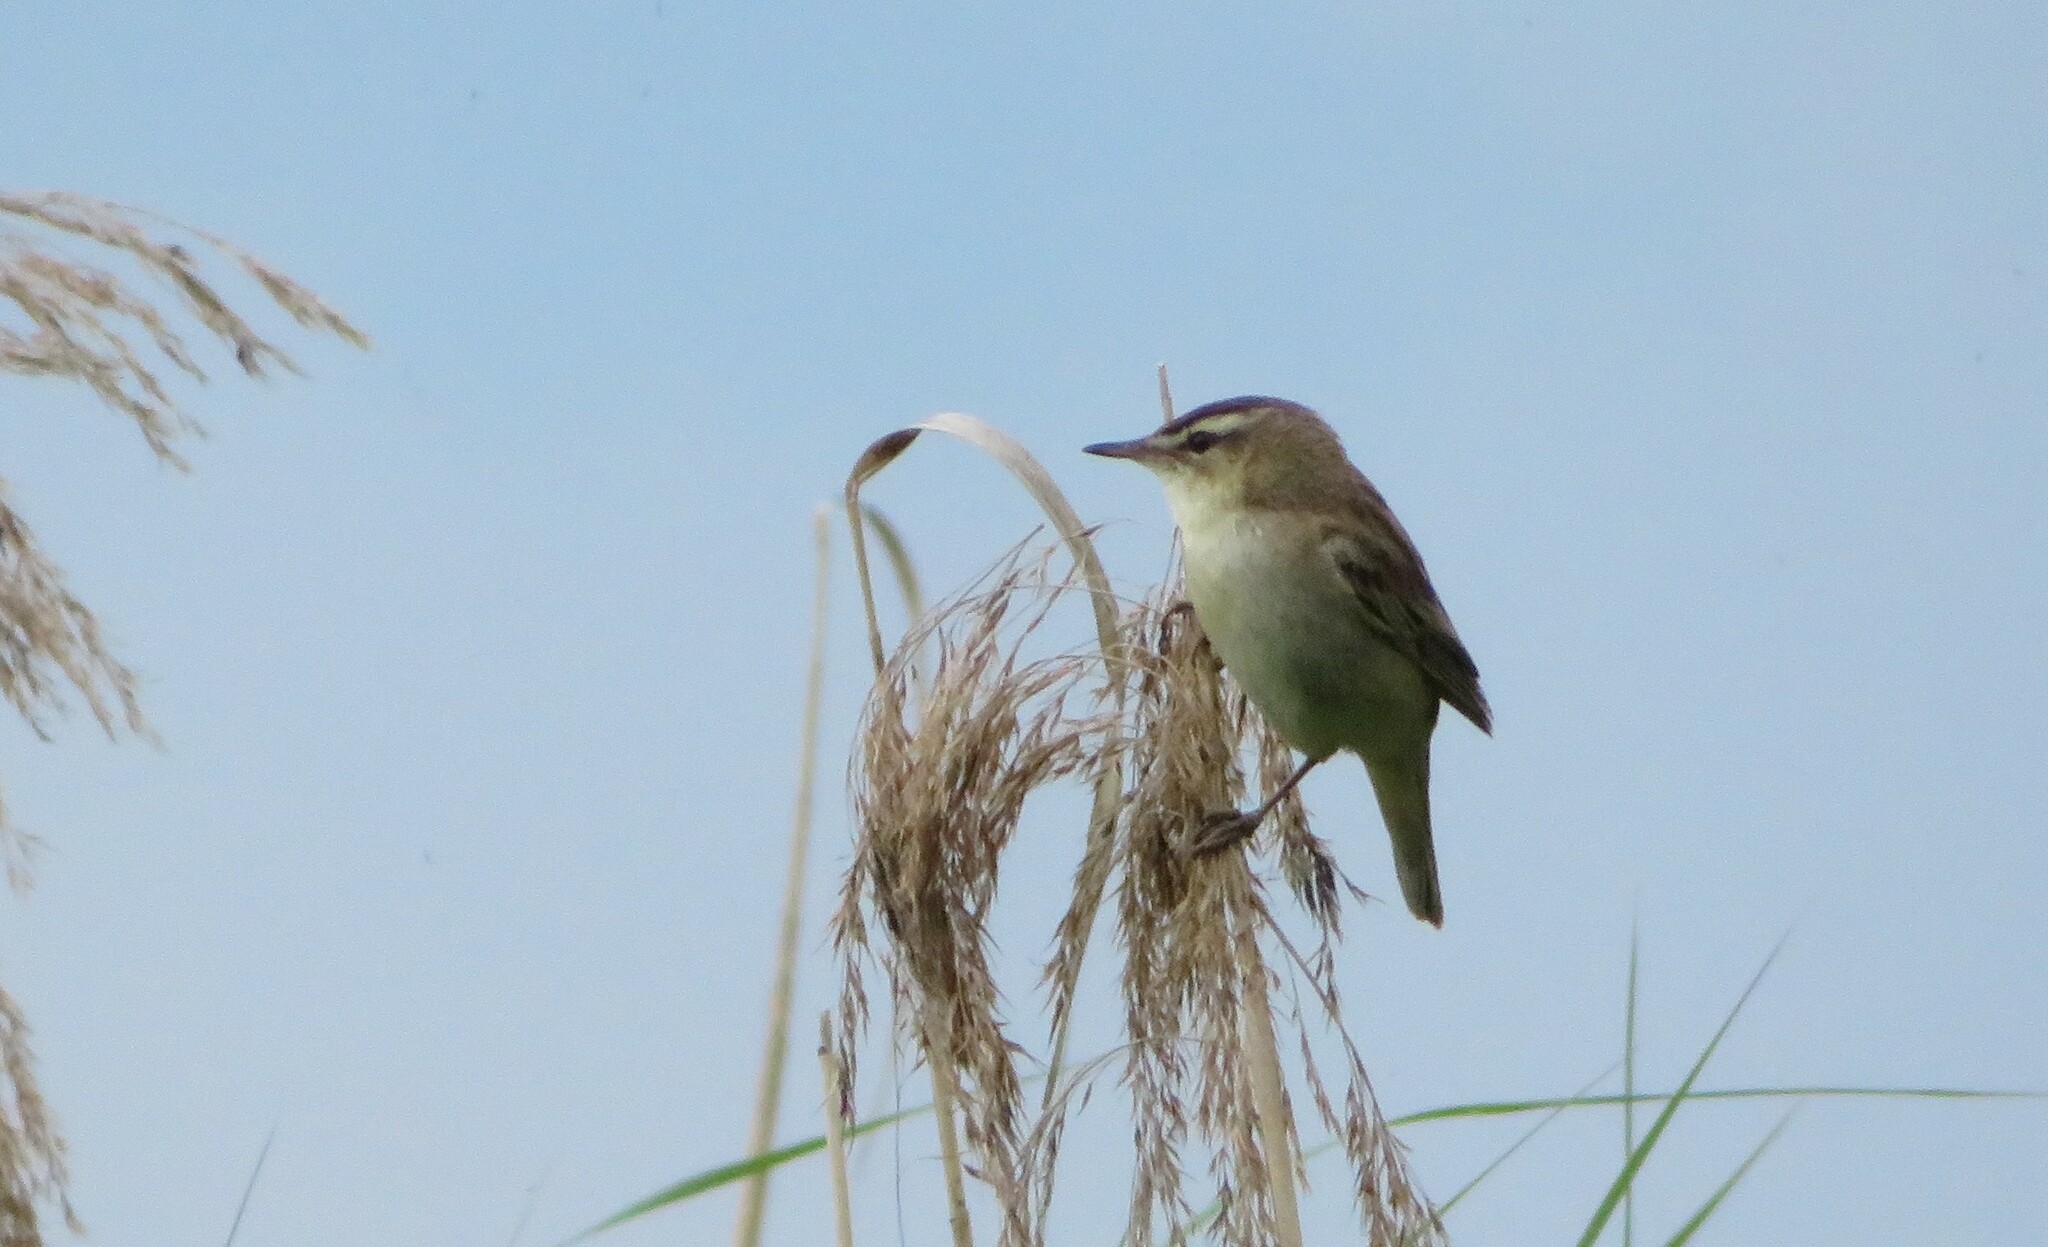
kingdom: Animalia
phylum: Chordata
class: Aves
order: Passeriformes
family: Acrocephalidae
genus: Acrocephalus
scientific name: Acrocephalus schoenobaenus
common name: Sedge warbler
